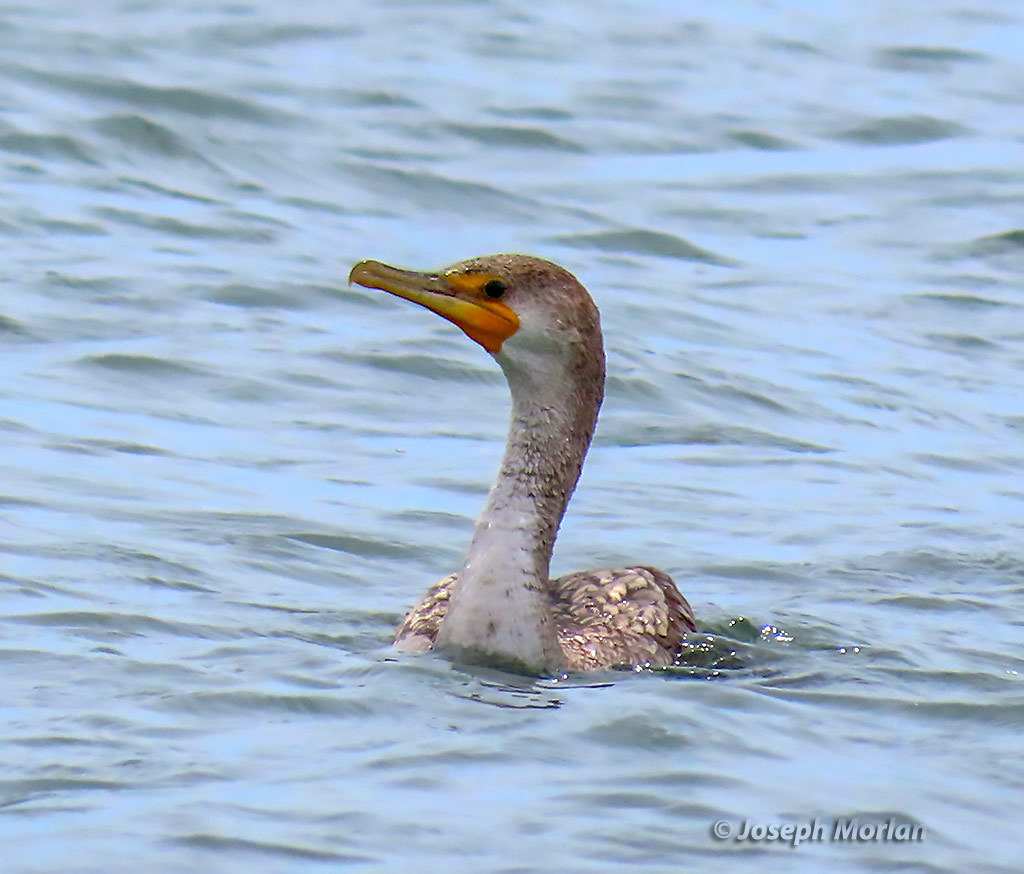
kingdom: Animalia
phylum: Chordata
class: Aves
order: Suliformes
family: Phalacrocoracidae
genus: Phalacrocorax
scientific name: Phalacrocorax auritus
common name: Double-crested cormorant
